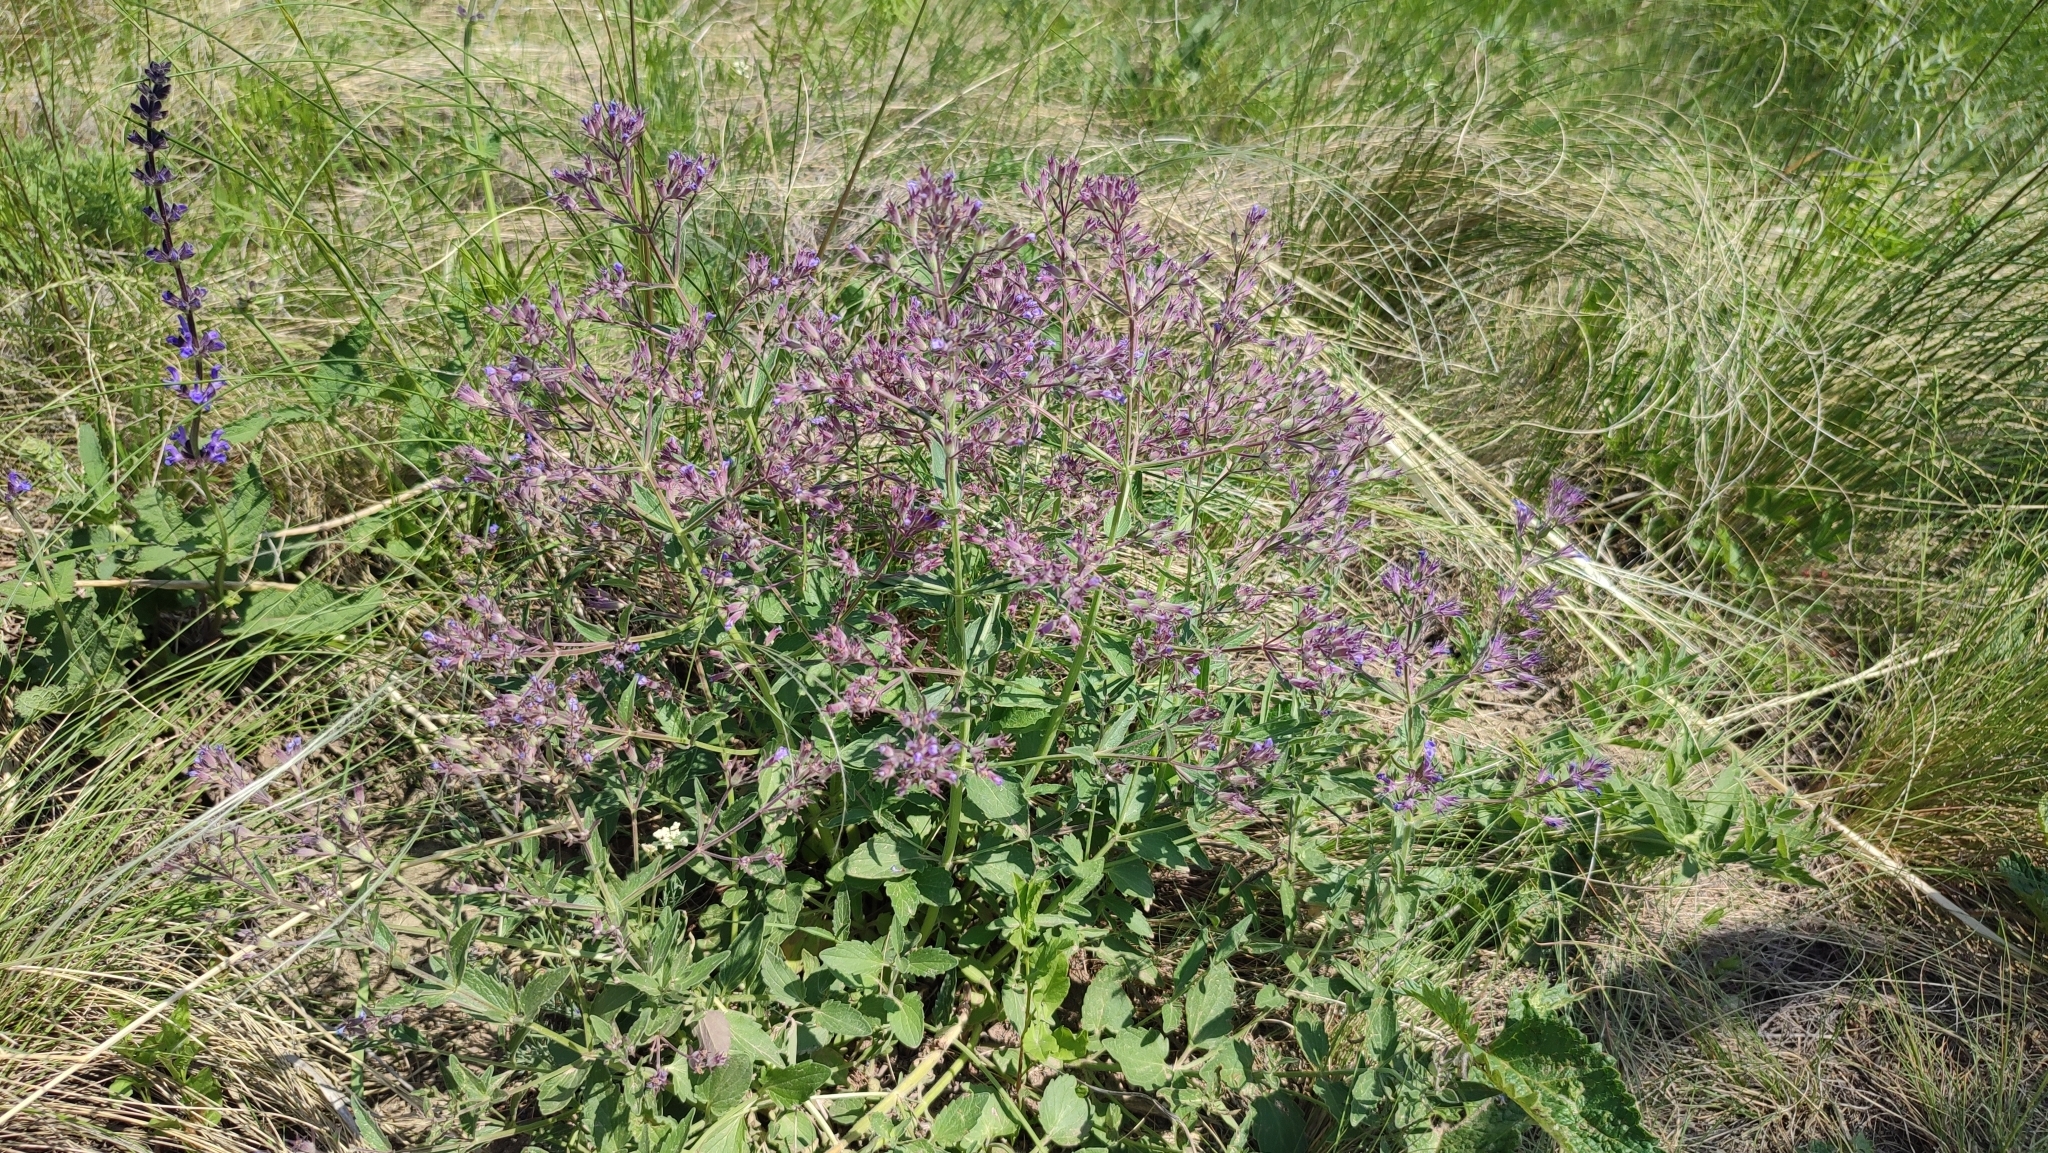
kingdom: Plantae
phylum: Tracheophyta
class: Magnoliopsida
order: Lamiales
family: Lamiaceae
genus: Nepeta
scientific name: Nepeta ucranica
